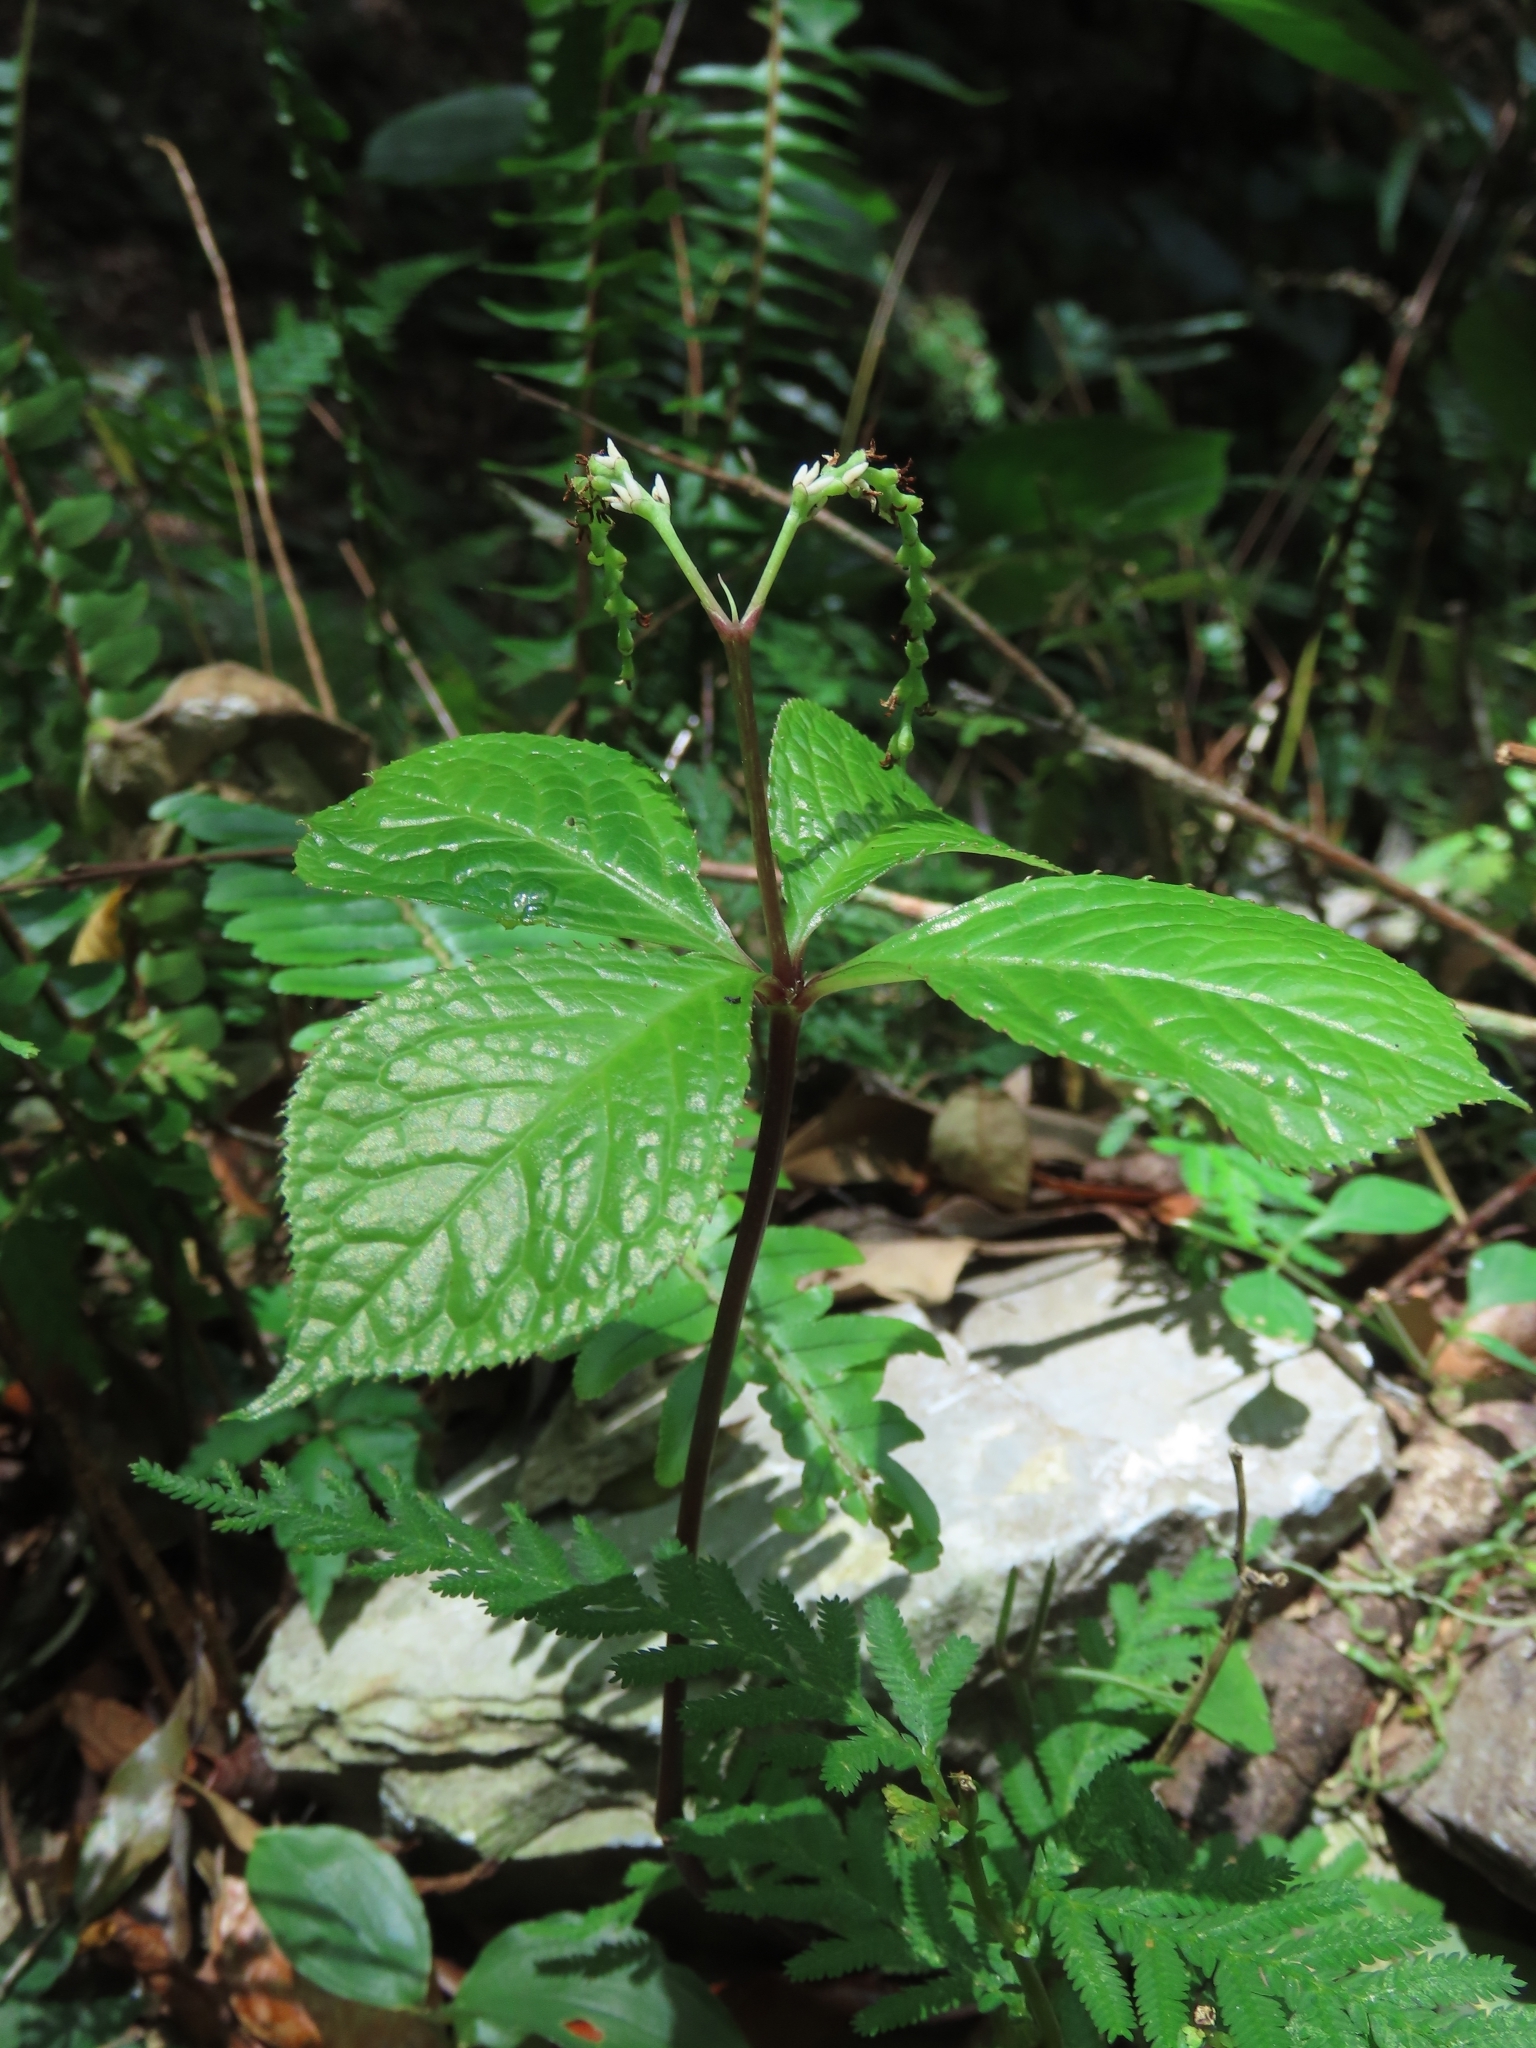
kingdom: Plantae
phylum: Tracheophyta
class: Magnoliopsida
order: Chloranthales
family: Chloranthaceae
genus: Chloranthus
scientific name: Chloranthus oldhamii
